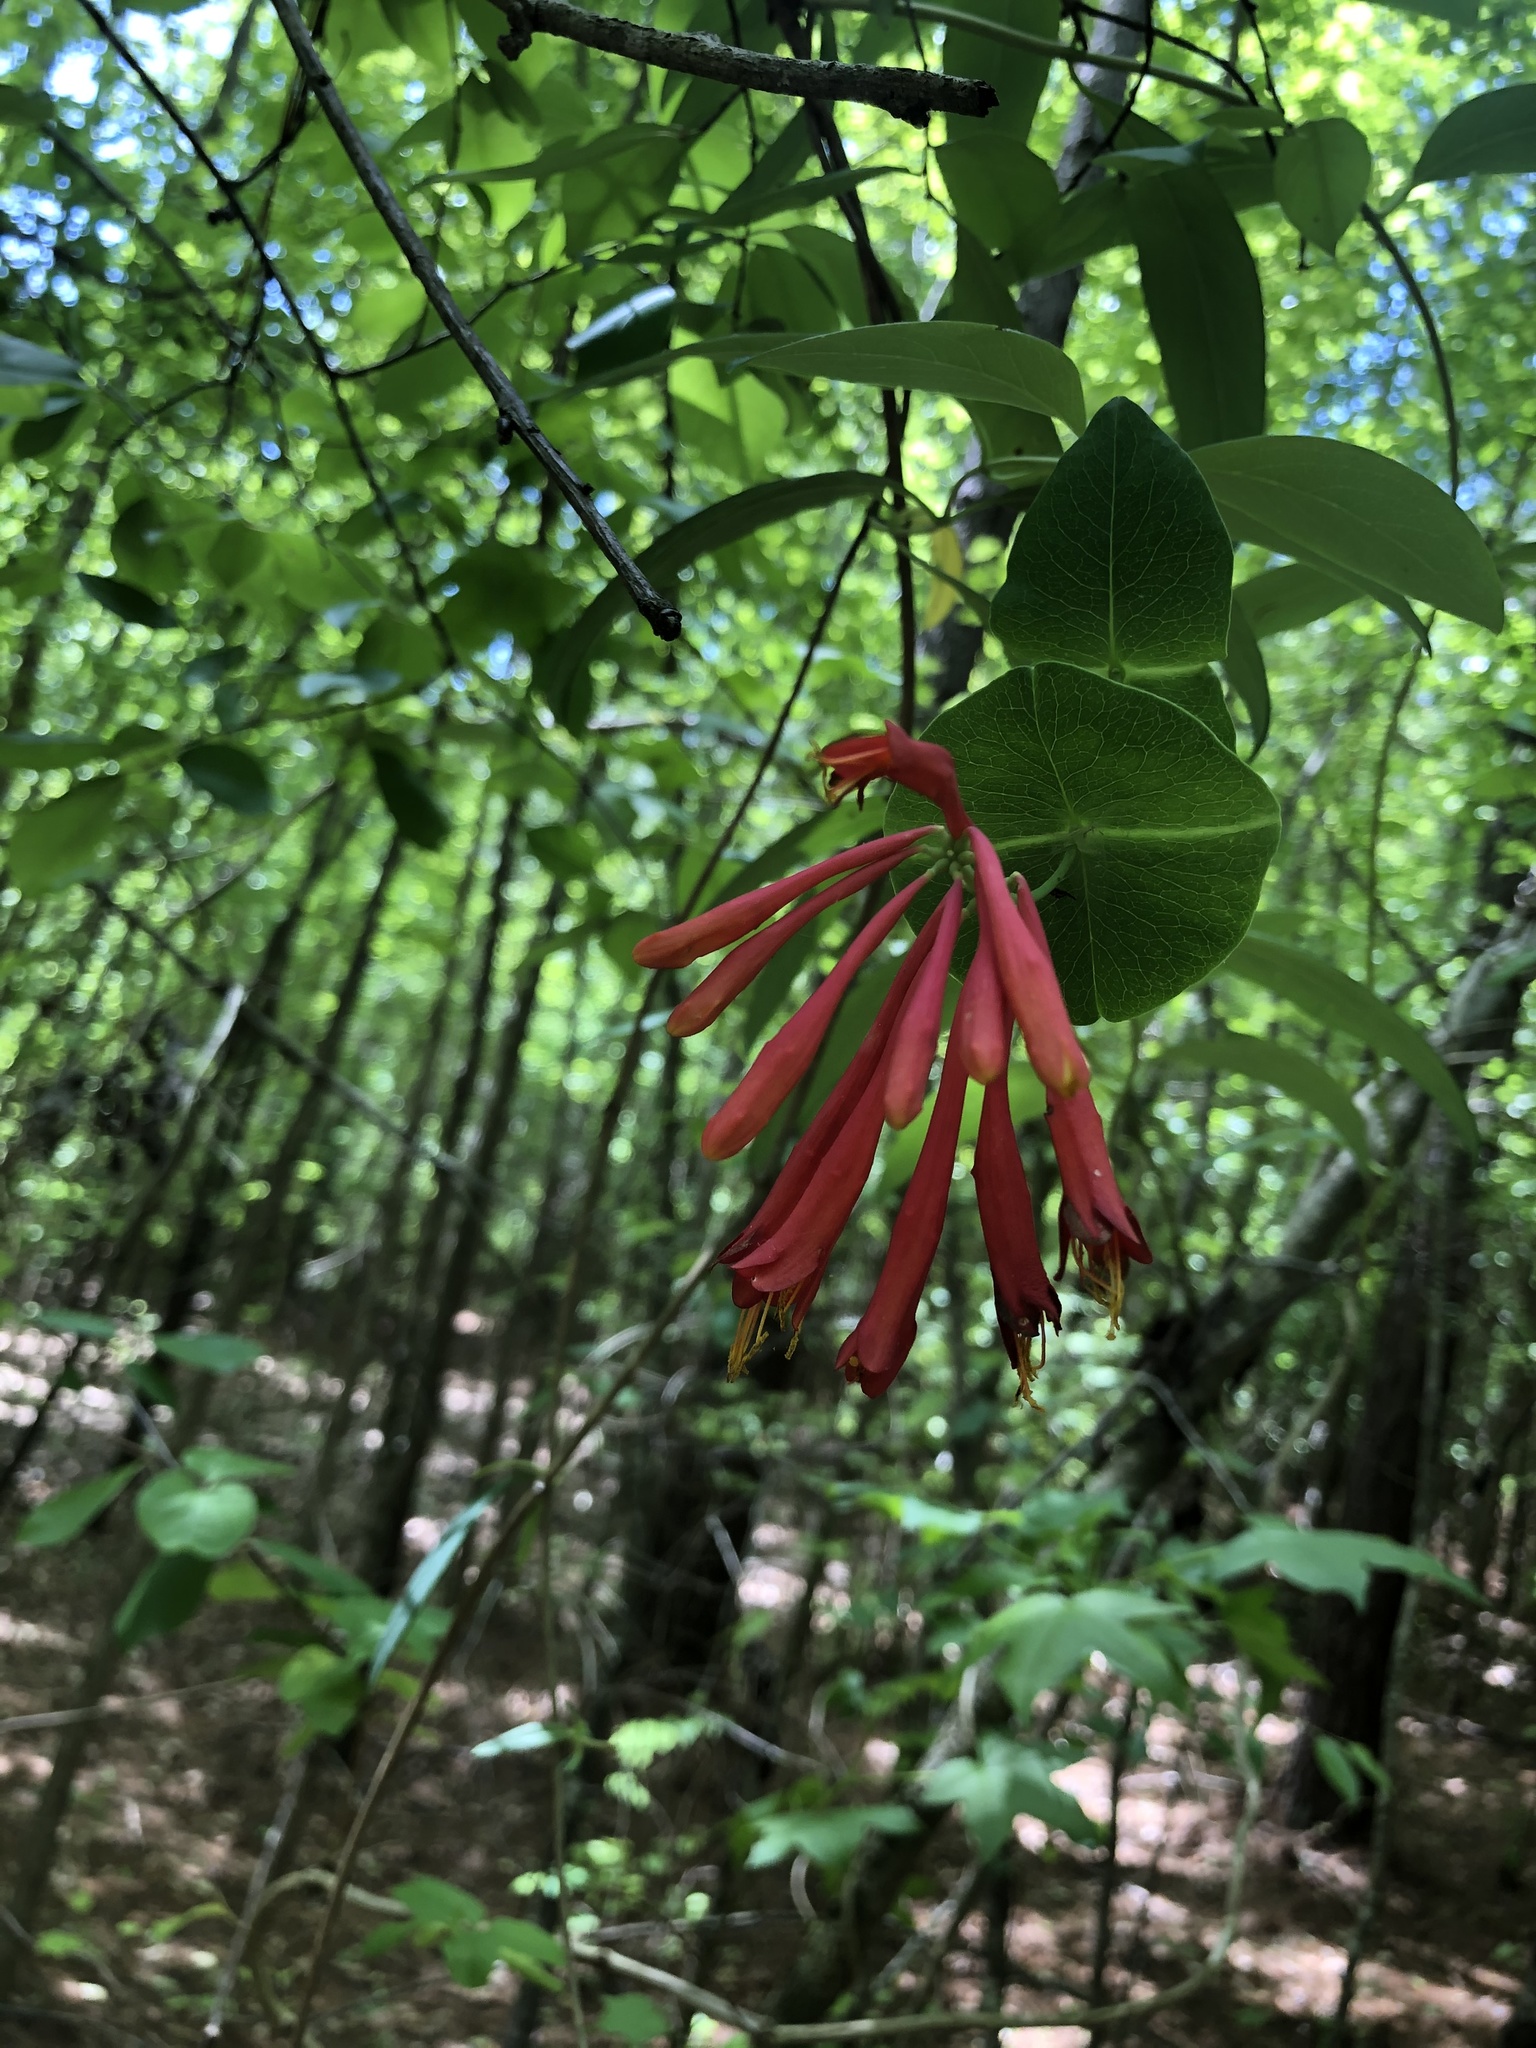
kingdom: Plantae
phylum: Tracheophyta
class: Magnoliopsida
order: Dipsacales
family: Caprifoliaceae
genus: Lonicera
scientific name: Lonicera sempervirens
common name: Coral honeysuckle
